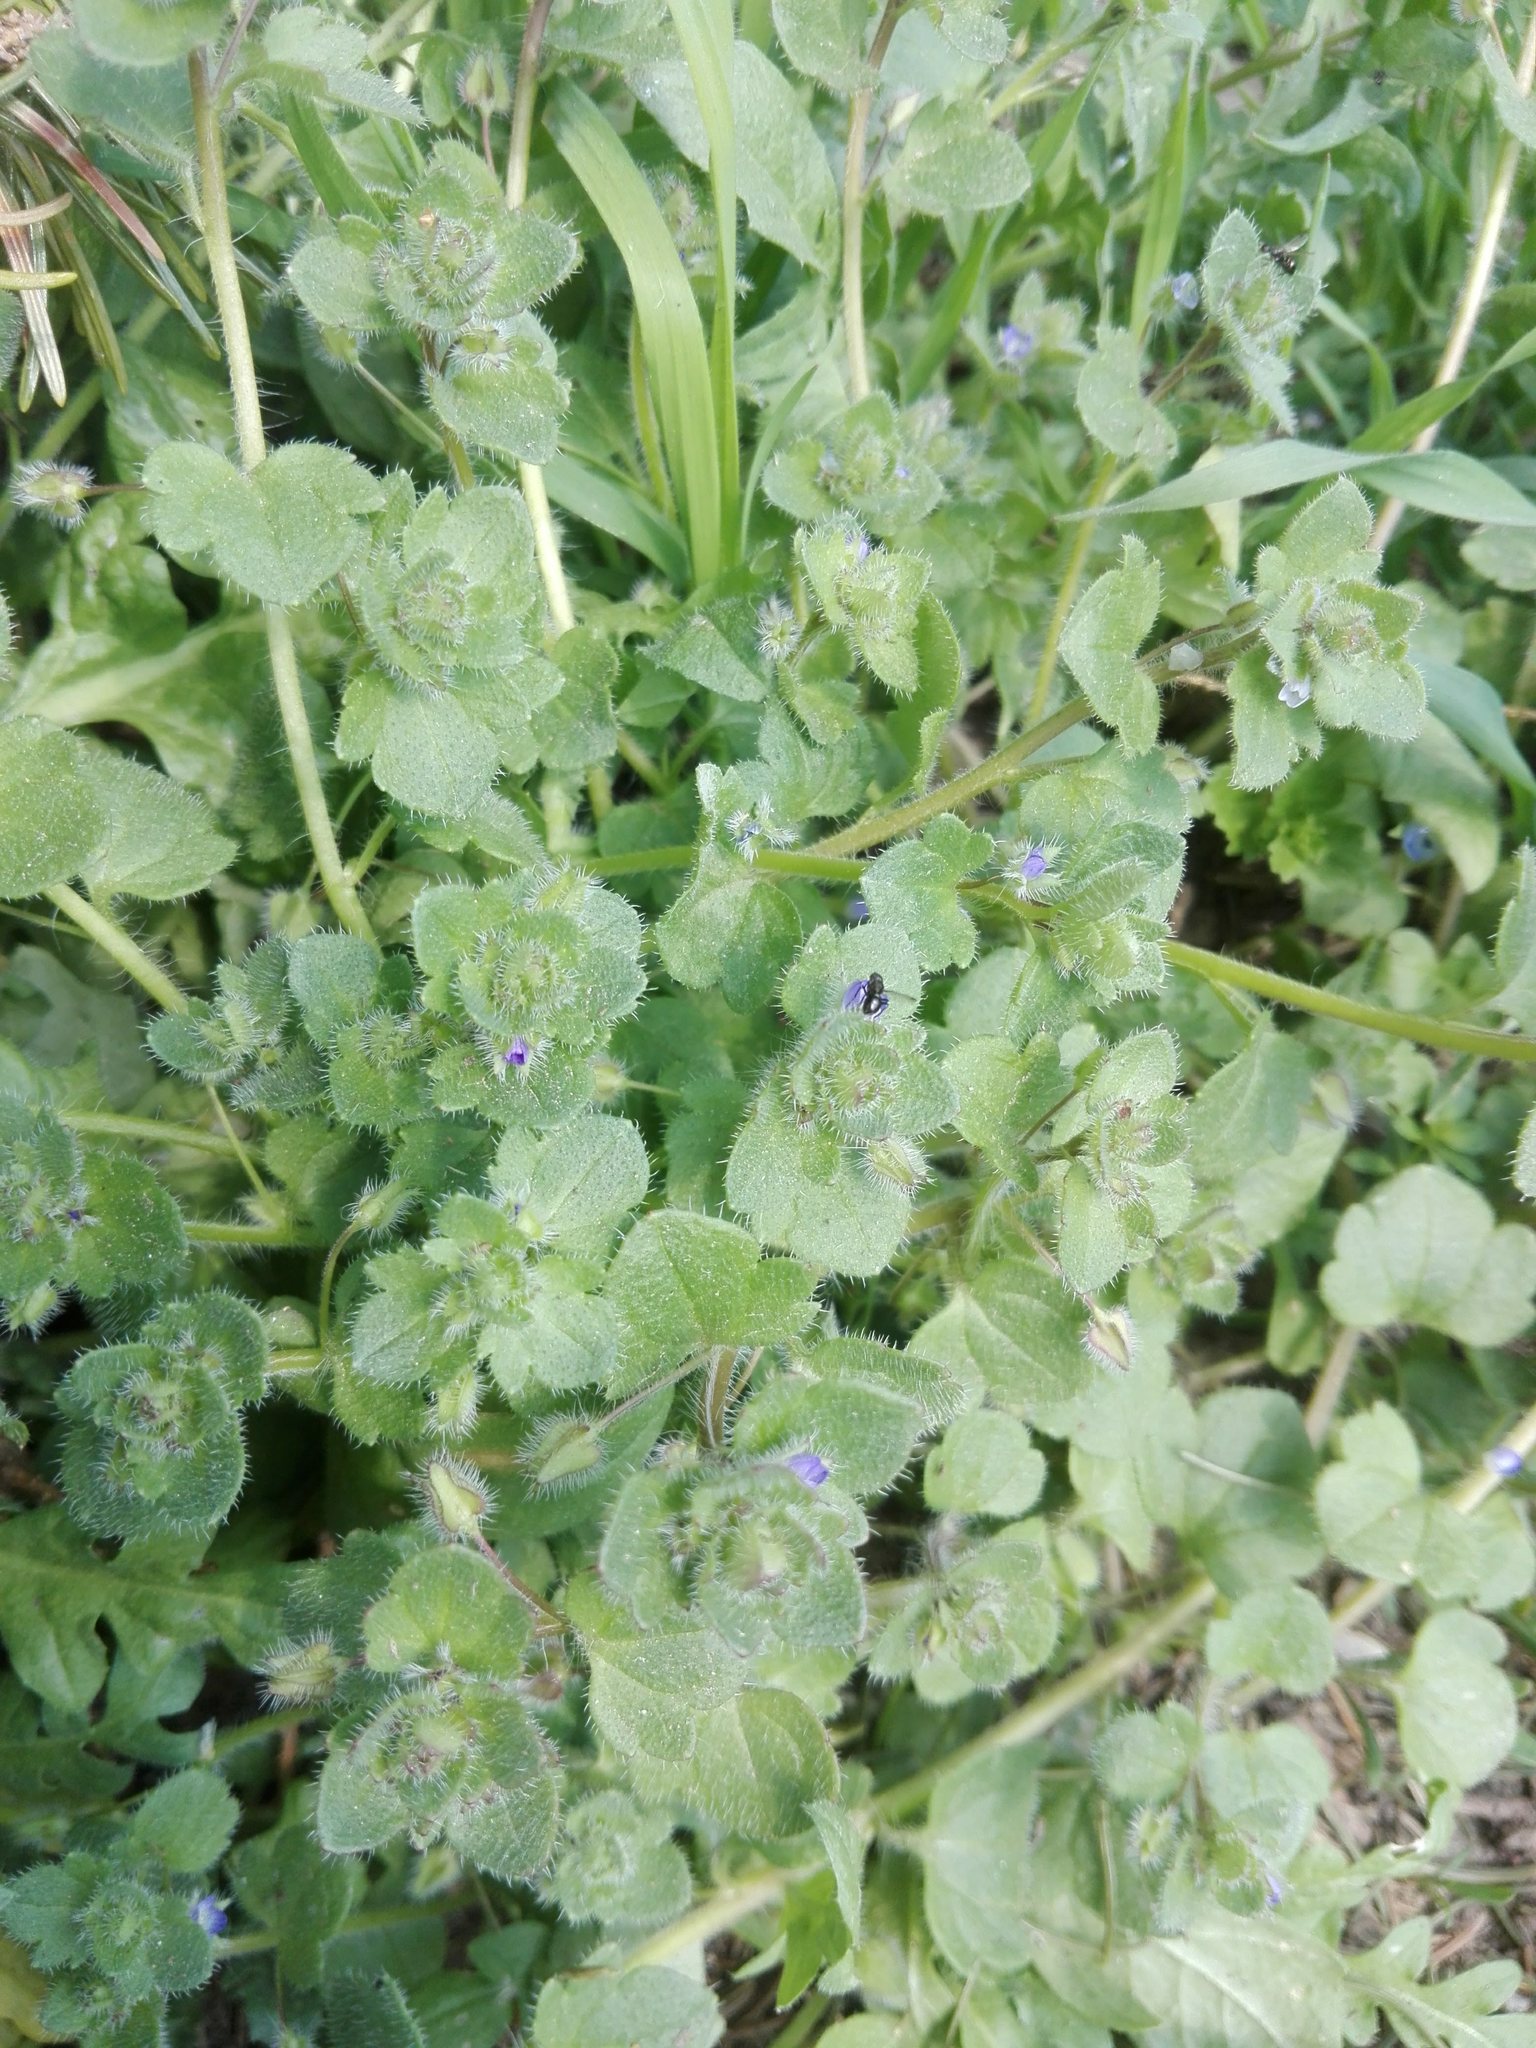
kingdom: Plantae
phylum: Tracheophyta
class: Magnoliopsida
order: Lamiales
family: Plantaginaceae
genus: Veronica
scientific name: Veronica hederifolia
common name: Ivy-leaved speedwell
